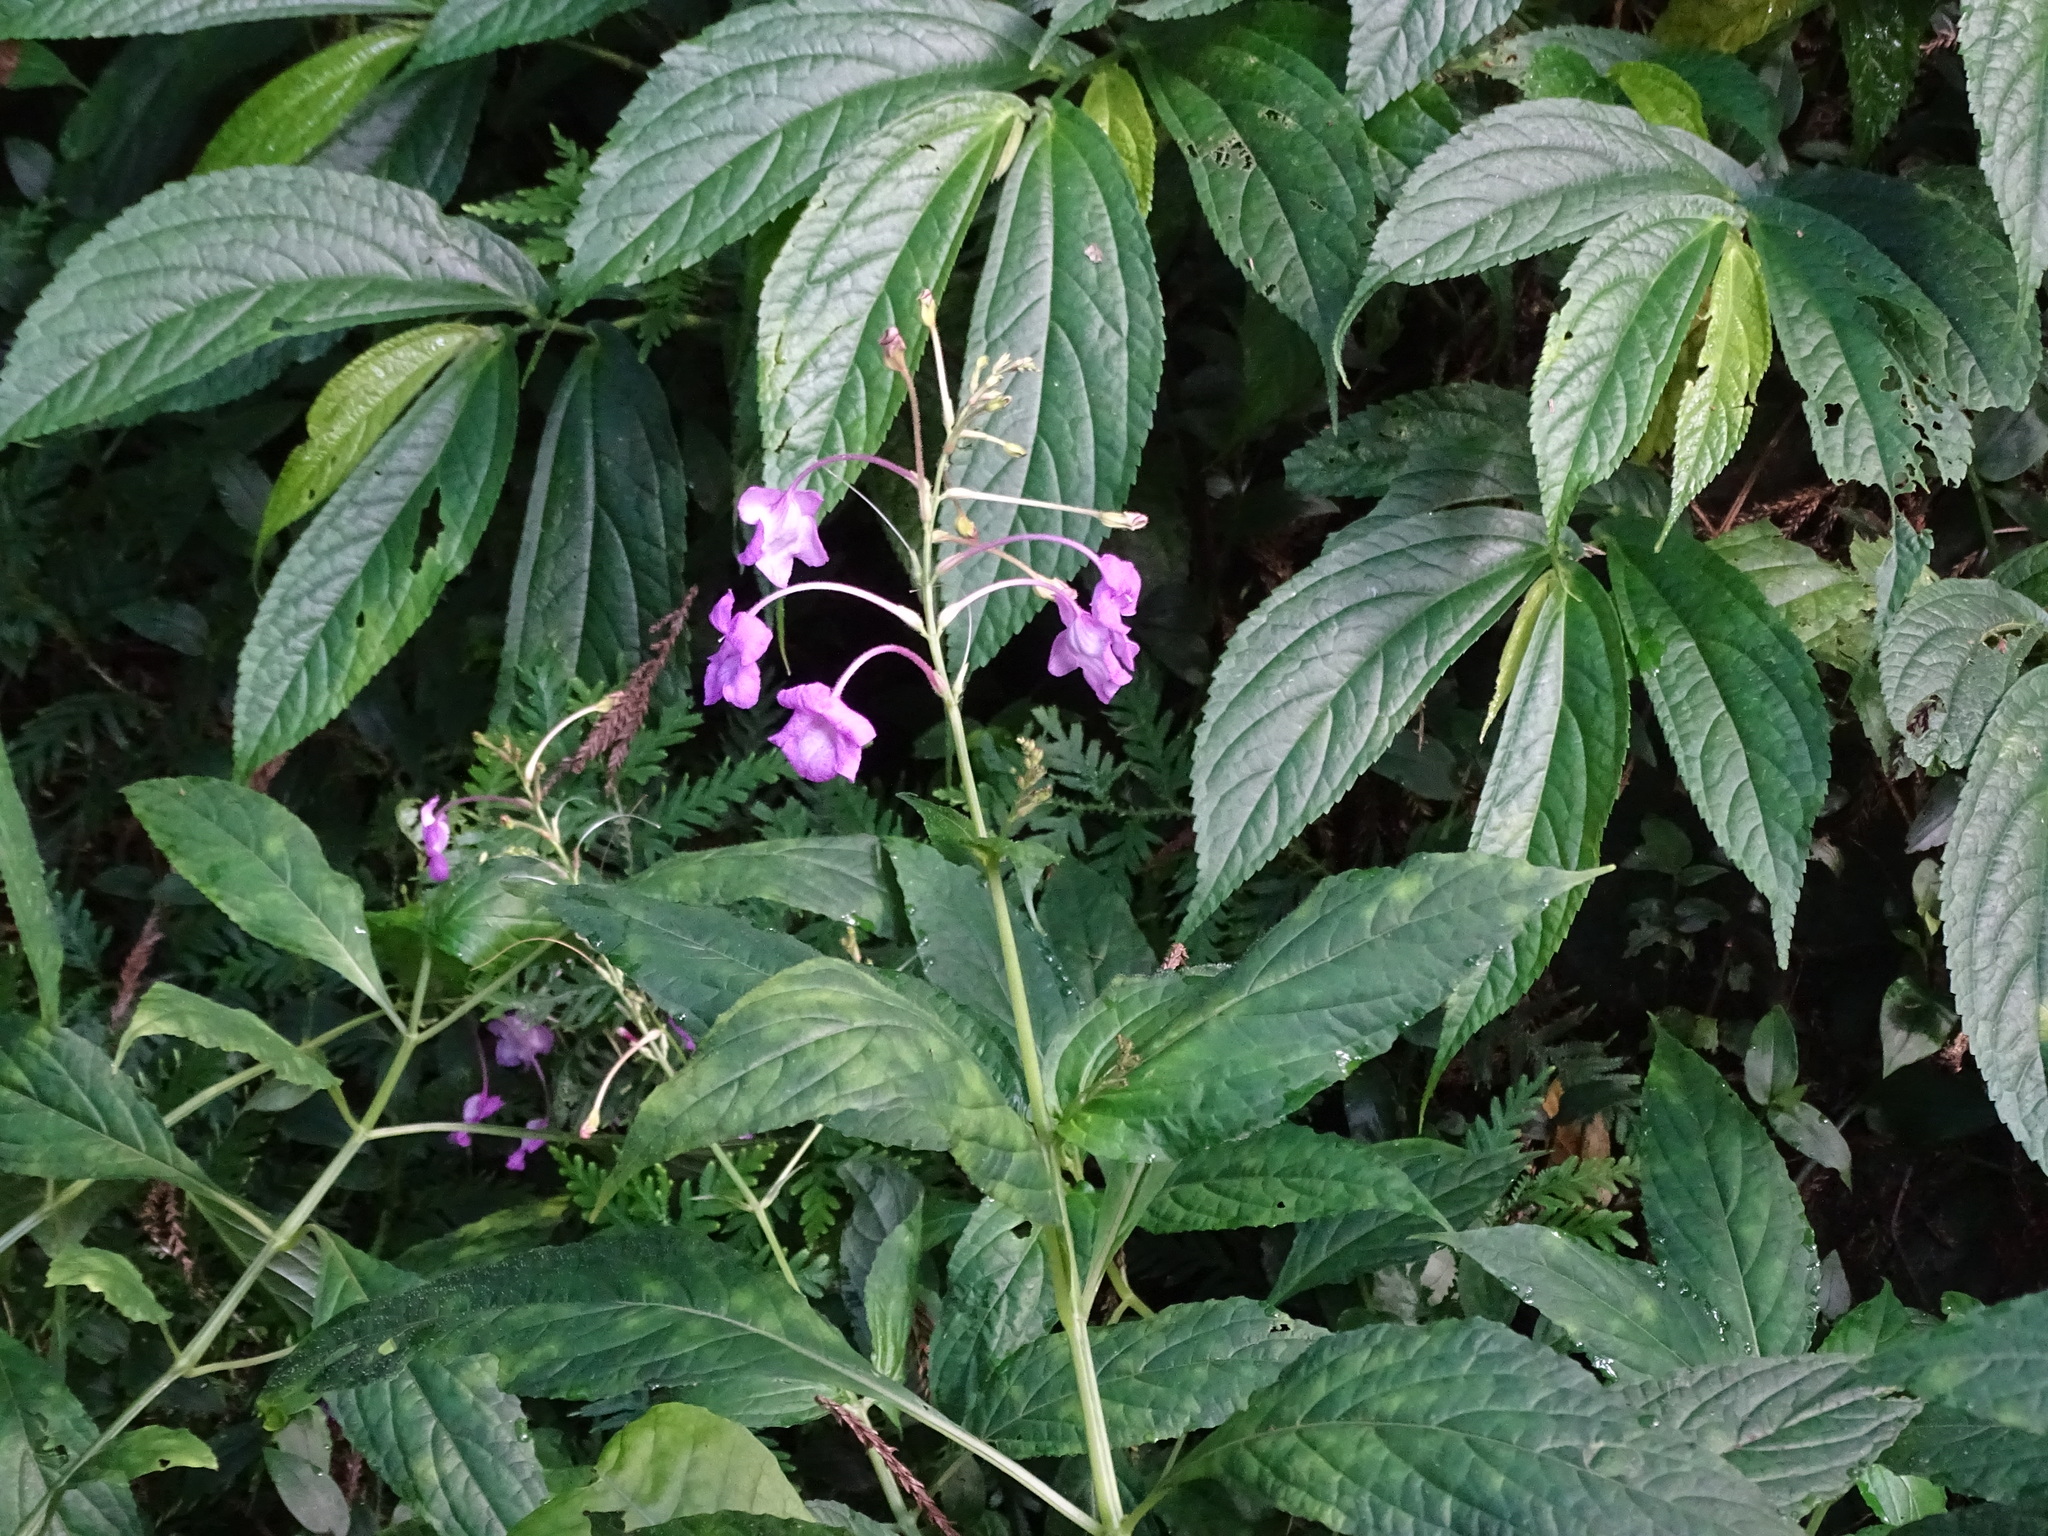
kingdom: Plantae
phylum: Tracheophyta
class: Magnoliopsida
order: Lamiales
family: Acanthaceae
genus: Mackaya
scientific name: Mackaya neesiana
